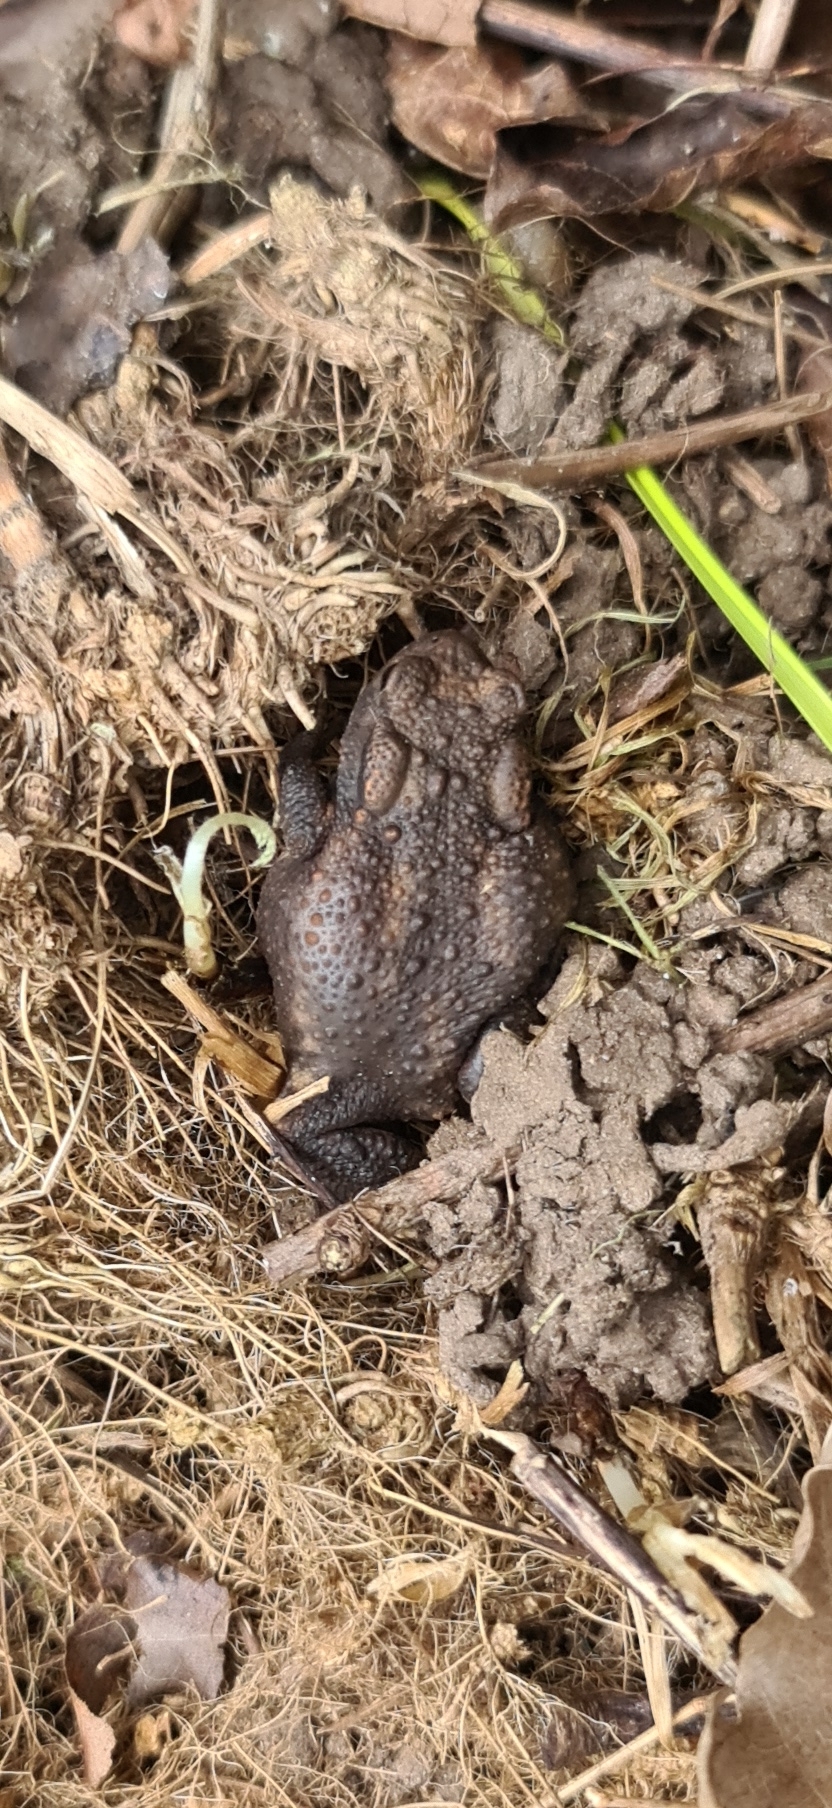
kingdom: Animalia
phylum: Chordata
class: Amphibia
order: Anura
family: Bufonidae
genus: Bufo
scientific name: Bufo bufo
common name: Common toad
